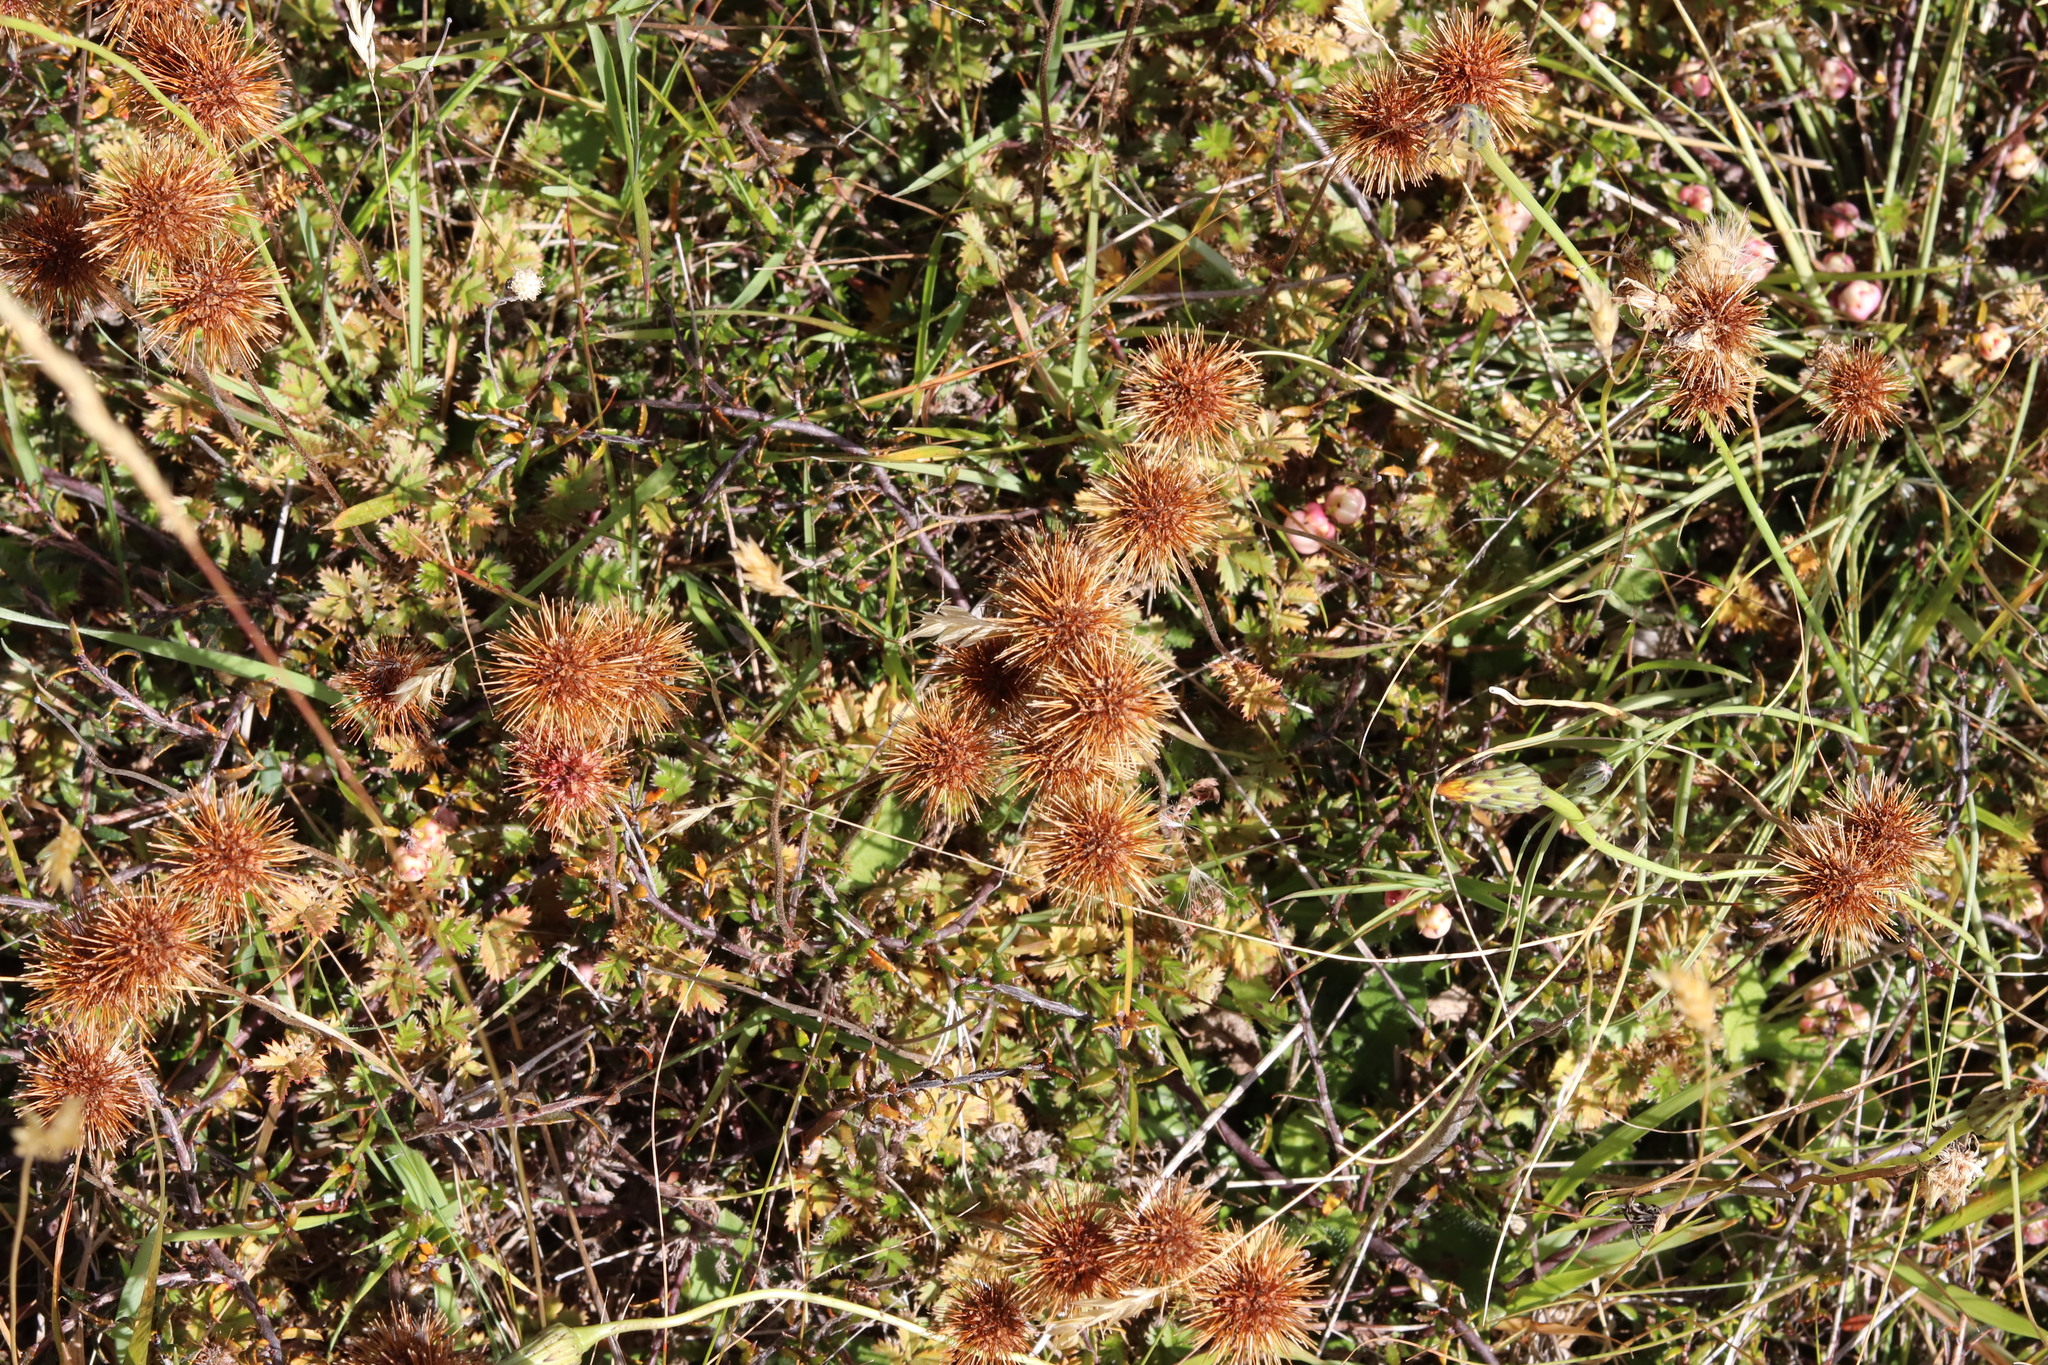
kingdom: Plantae
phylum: Tracheophyta
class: Magnoliopsida
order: Rosales
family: Rosaceae
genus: Acaena
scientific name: Acaena anserinifolia
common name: Bronze pirri-pirri-bur
